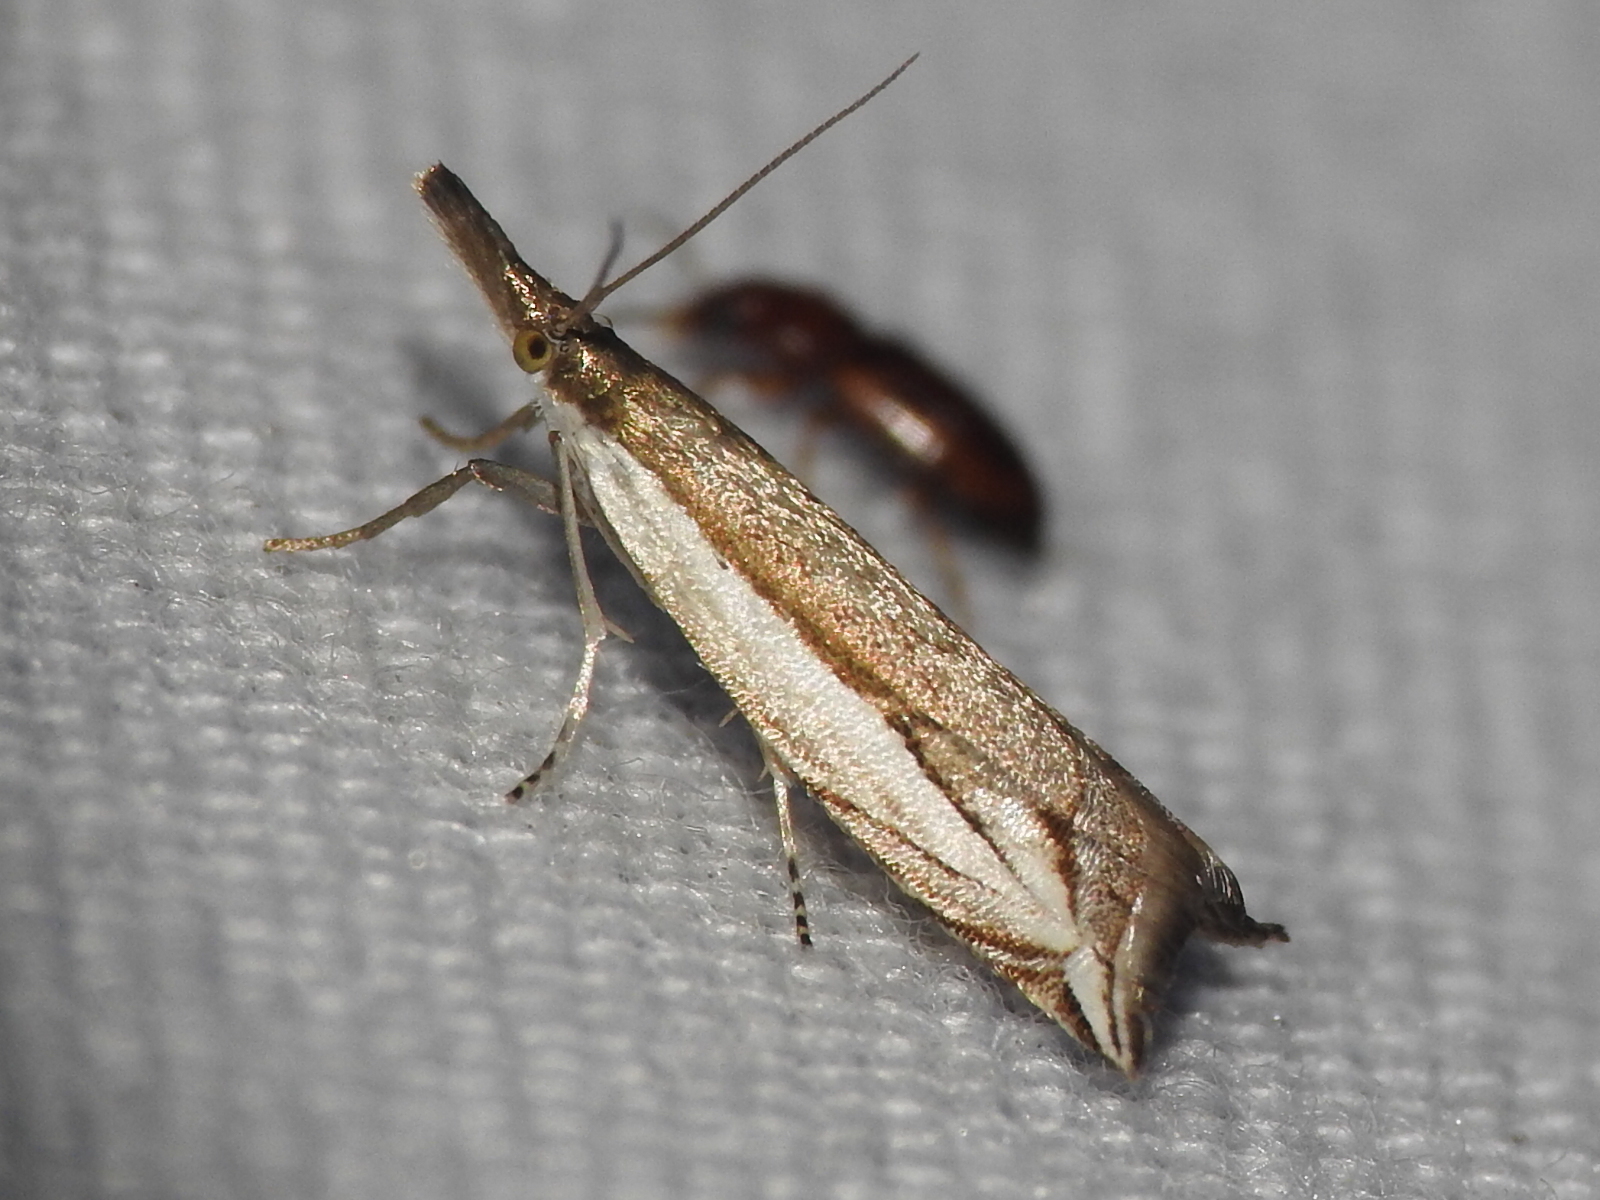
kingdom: Animalia
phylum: Arthropoda
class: Insecta
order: Lepidoptera
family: Crambidae
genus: Raphiptera
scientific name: Raphiptera argillaceellus
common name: Diminutive grass-veneer
